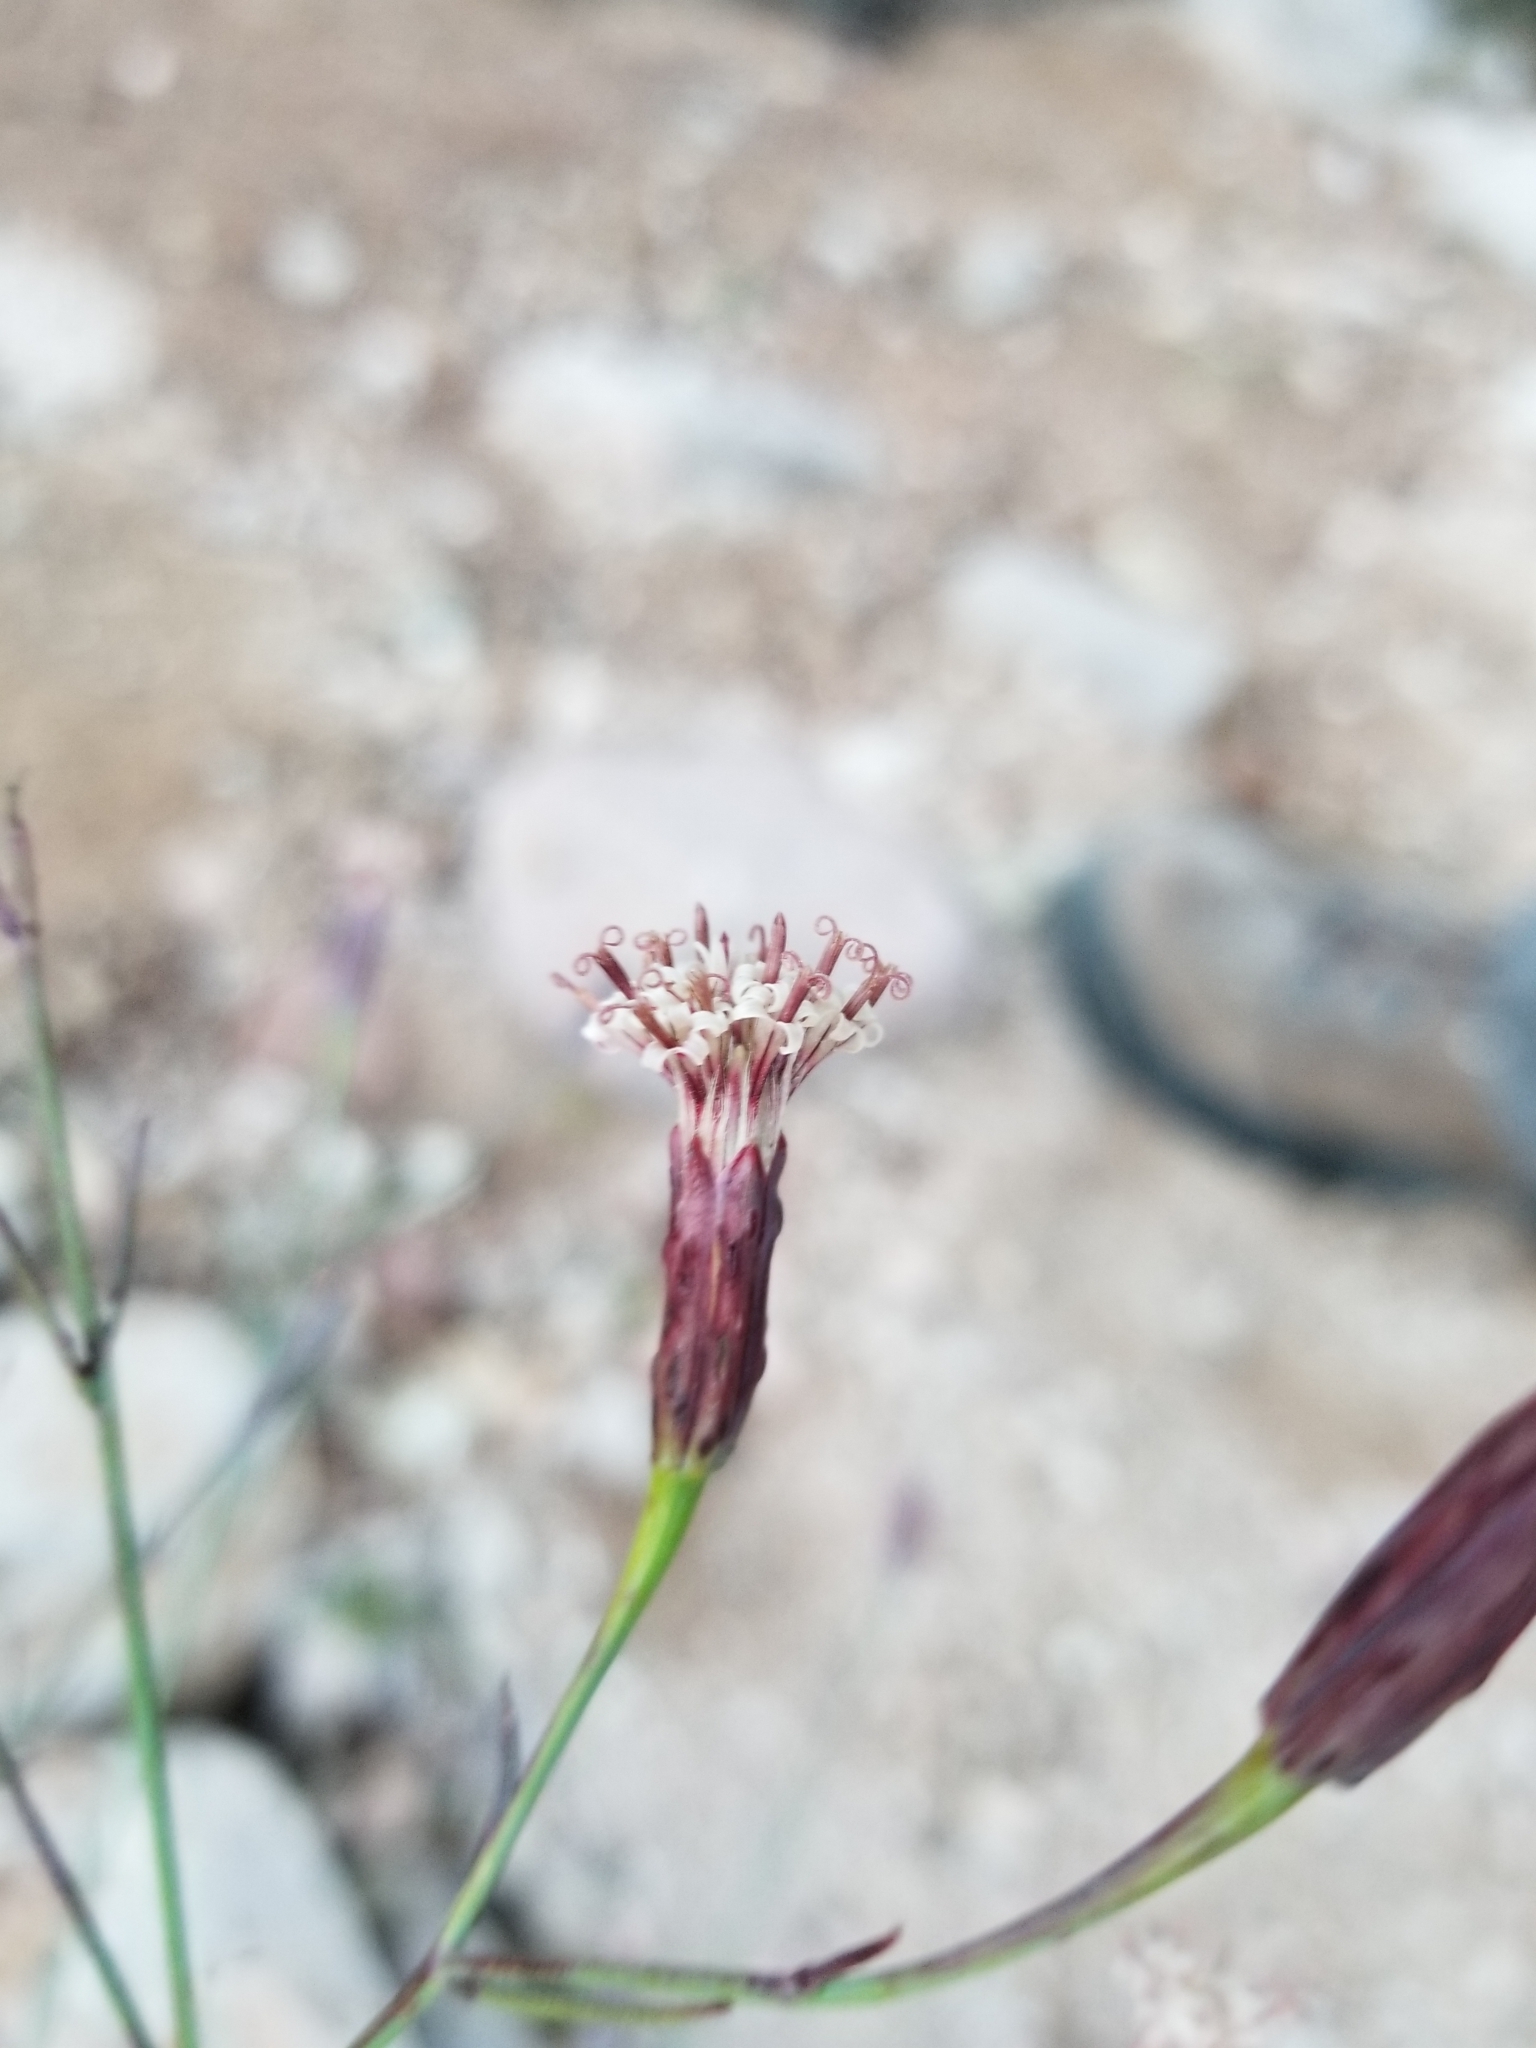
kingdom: Plantae
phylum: Tracheophyta
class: Magnoliopsida
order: Asterales
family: Asteraceae
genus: Porophyllum
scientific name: Porophyllum gracile
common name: Odora
